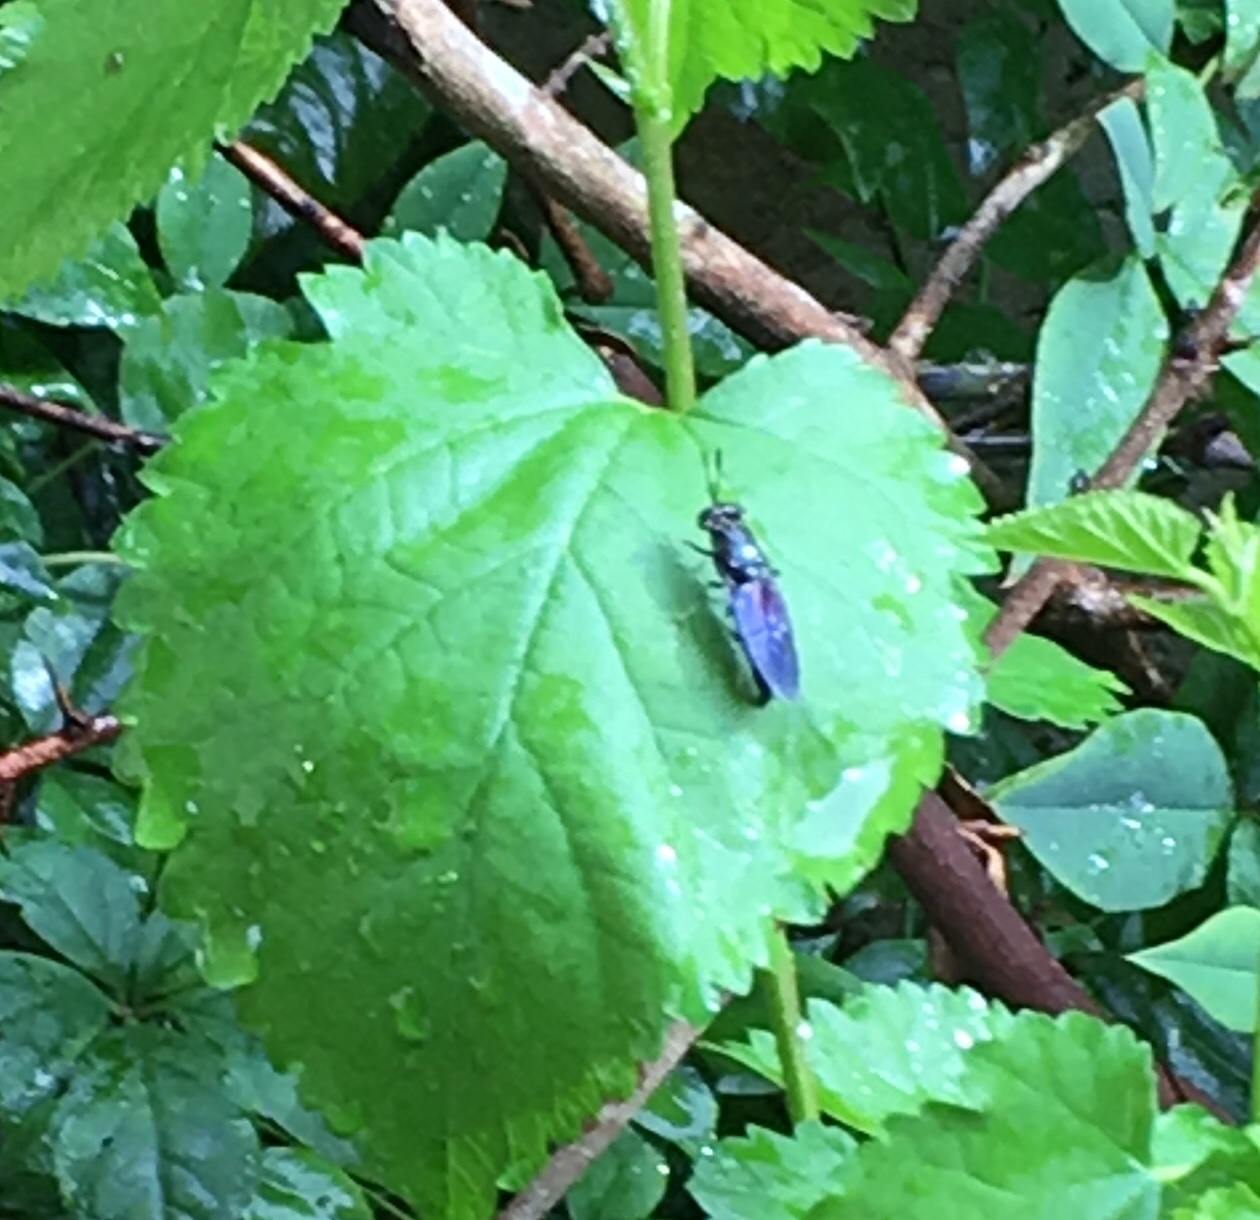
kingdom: Animalia
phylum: Arthropoda
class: Insecta
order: Diptera
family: Stratiomyidae
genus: Hermetia
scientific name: Hermetia illucens
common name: Black soldier fly
